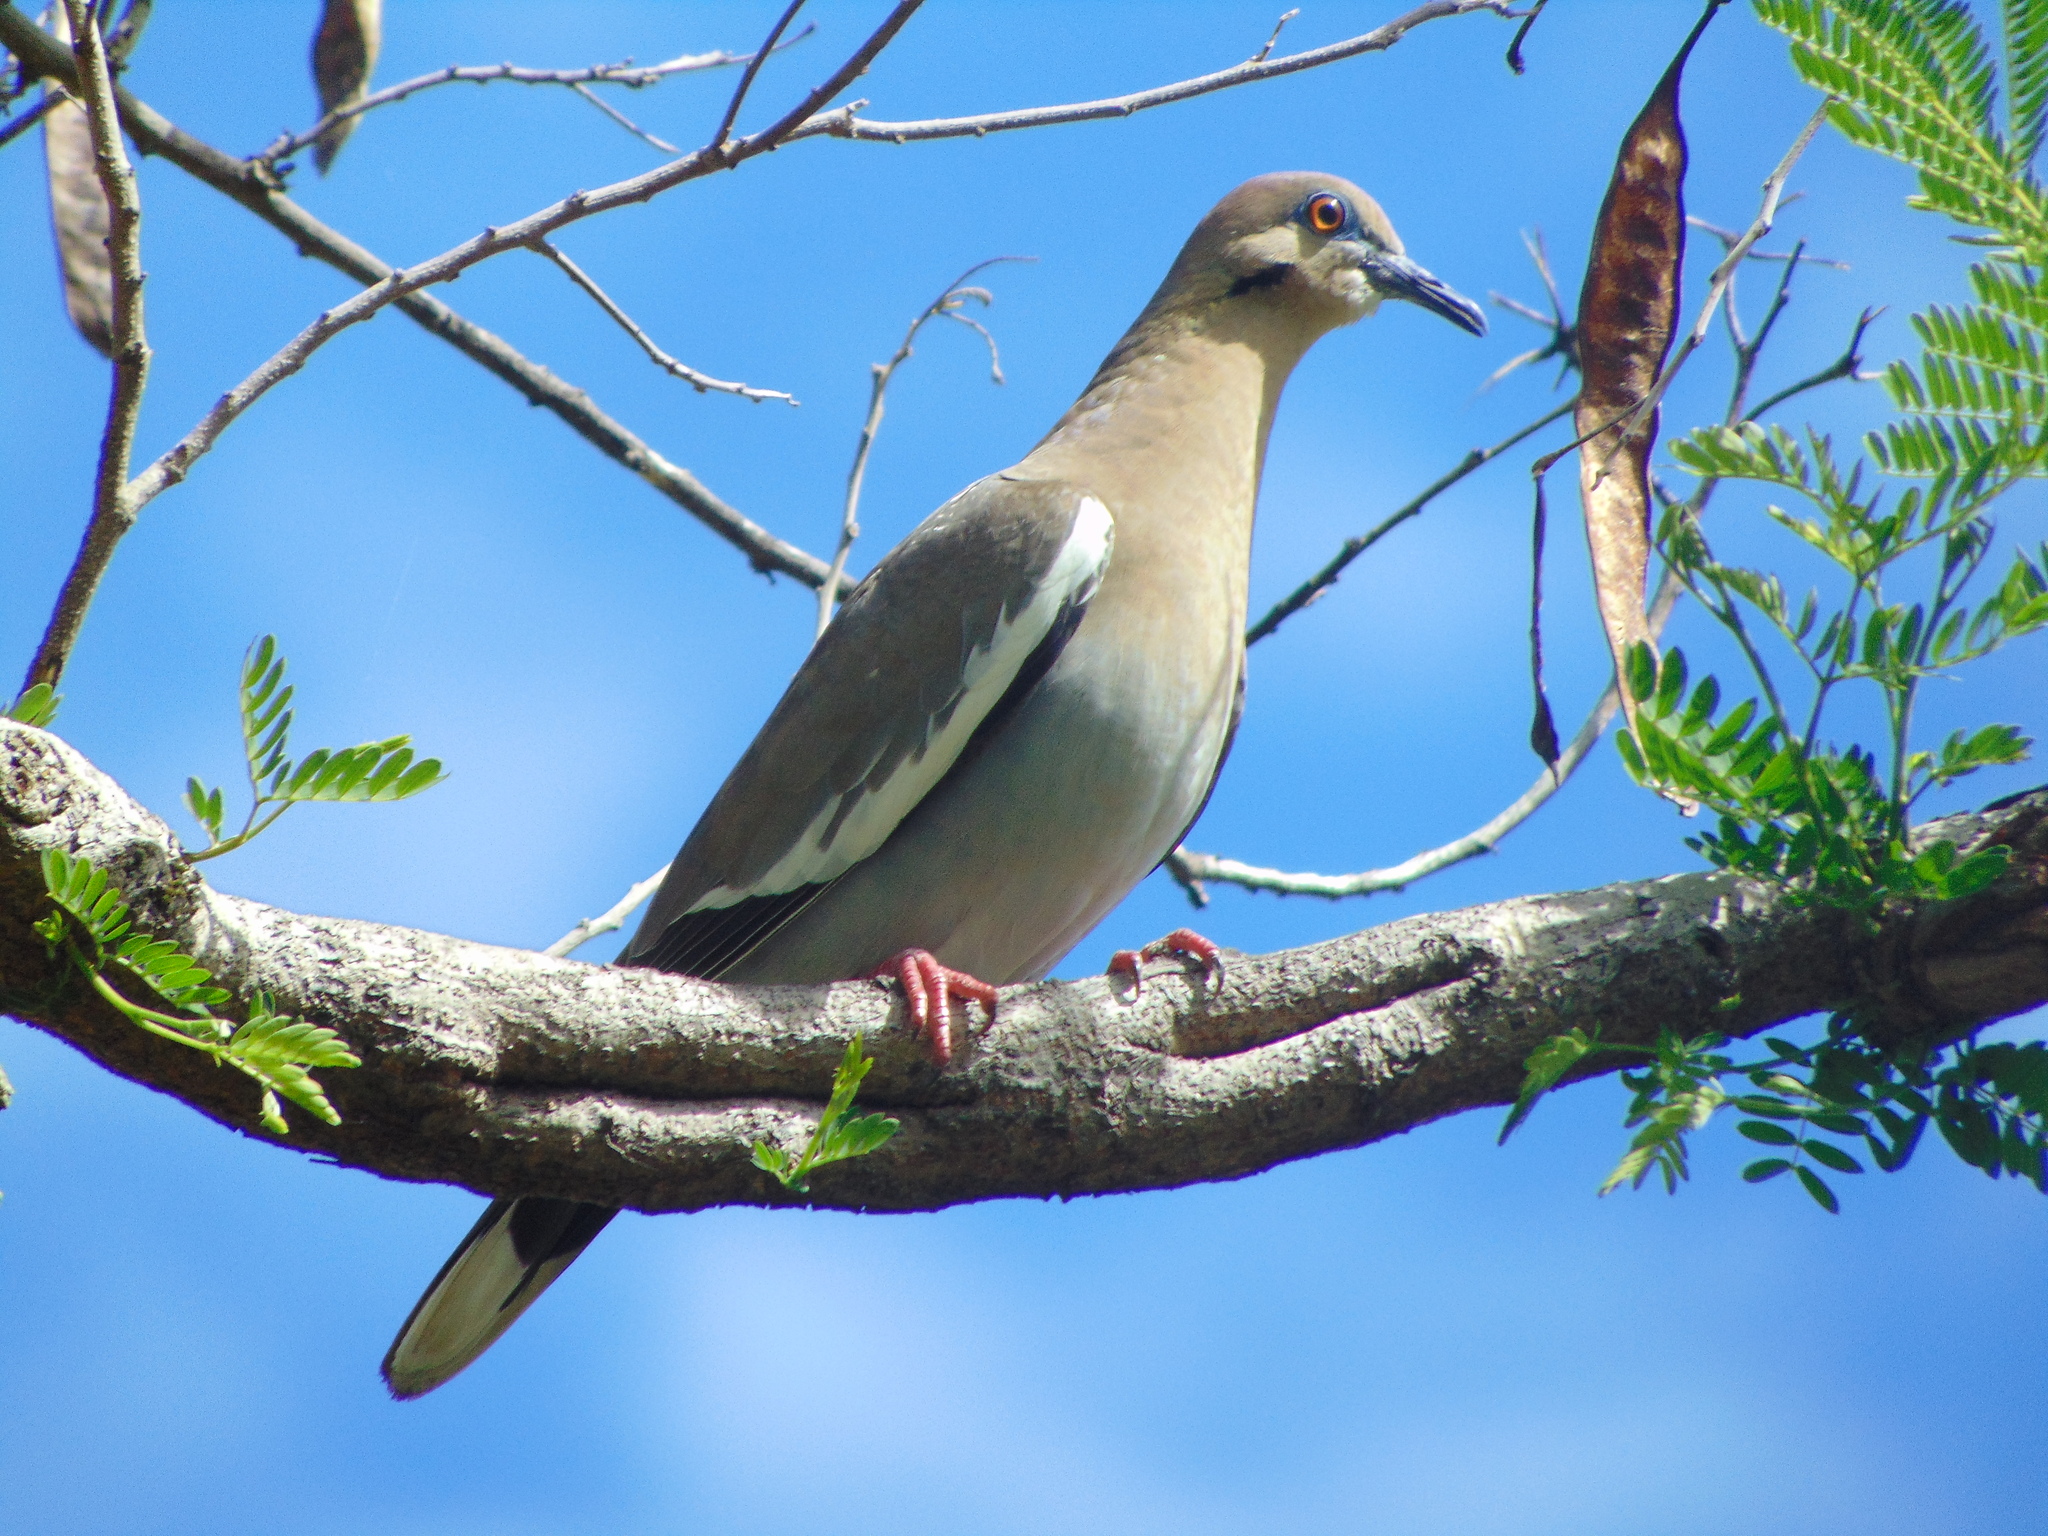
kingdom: Animalia
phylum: Chordata
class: Aves
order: Columbiformes
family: Columbidae
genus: Zenaida
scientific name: Zenaida asiatica
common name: White-winged dove
